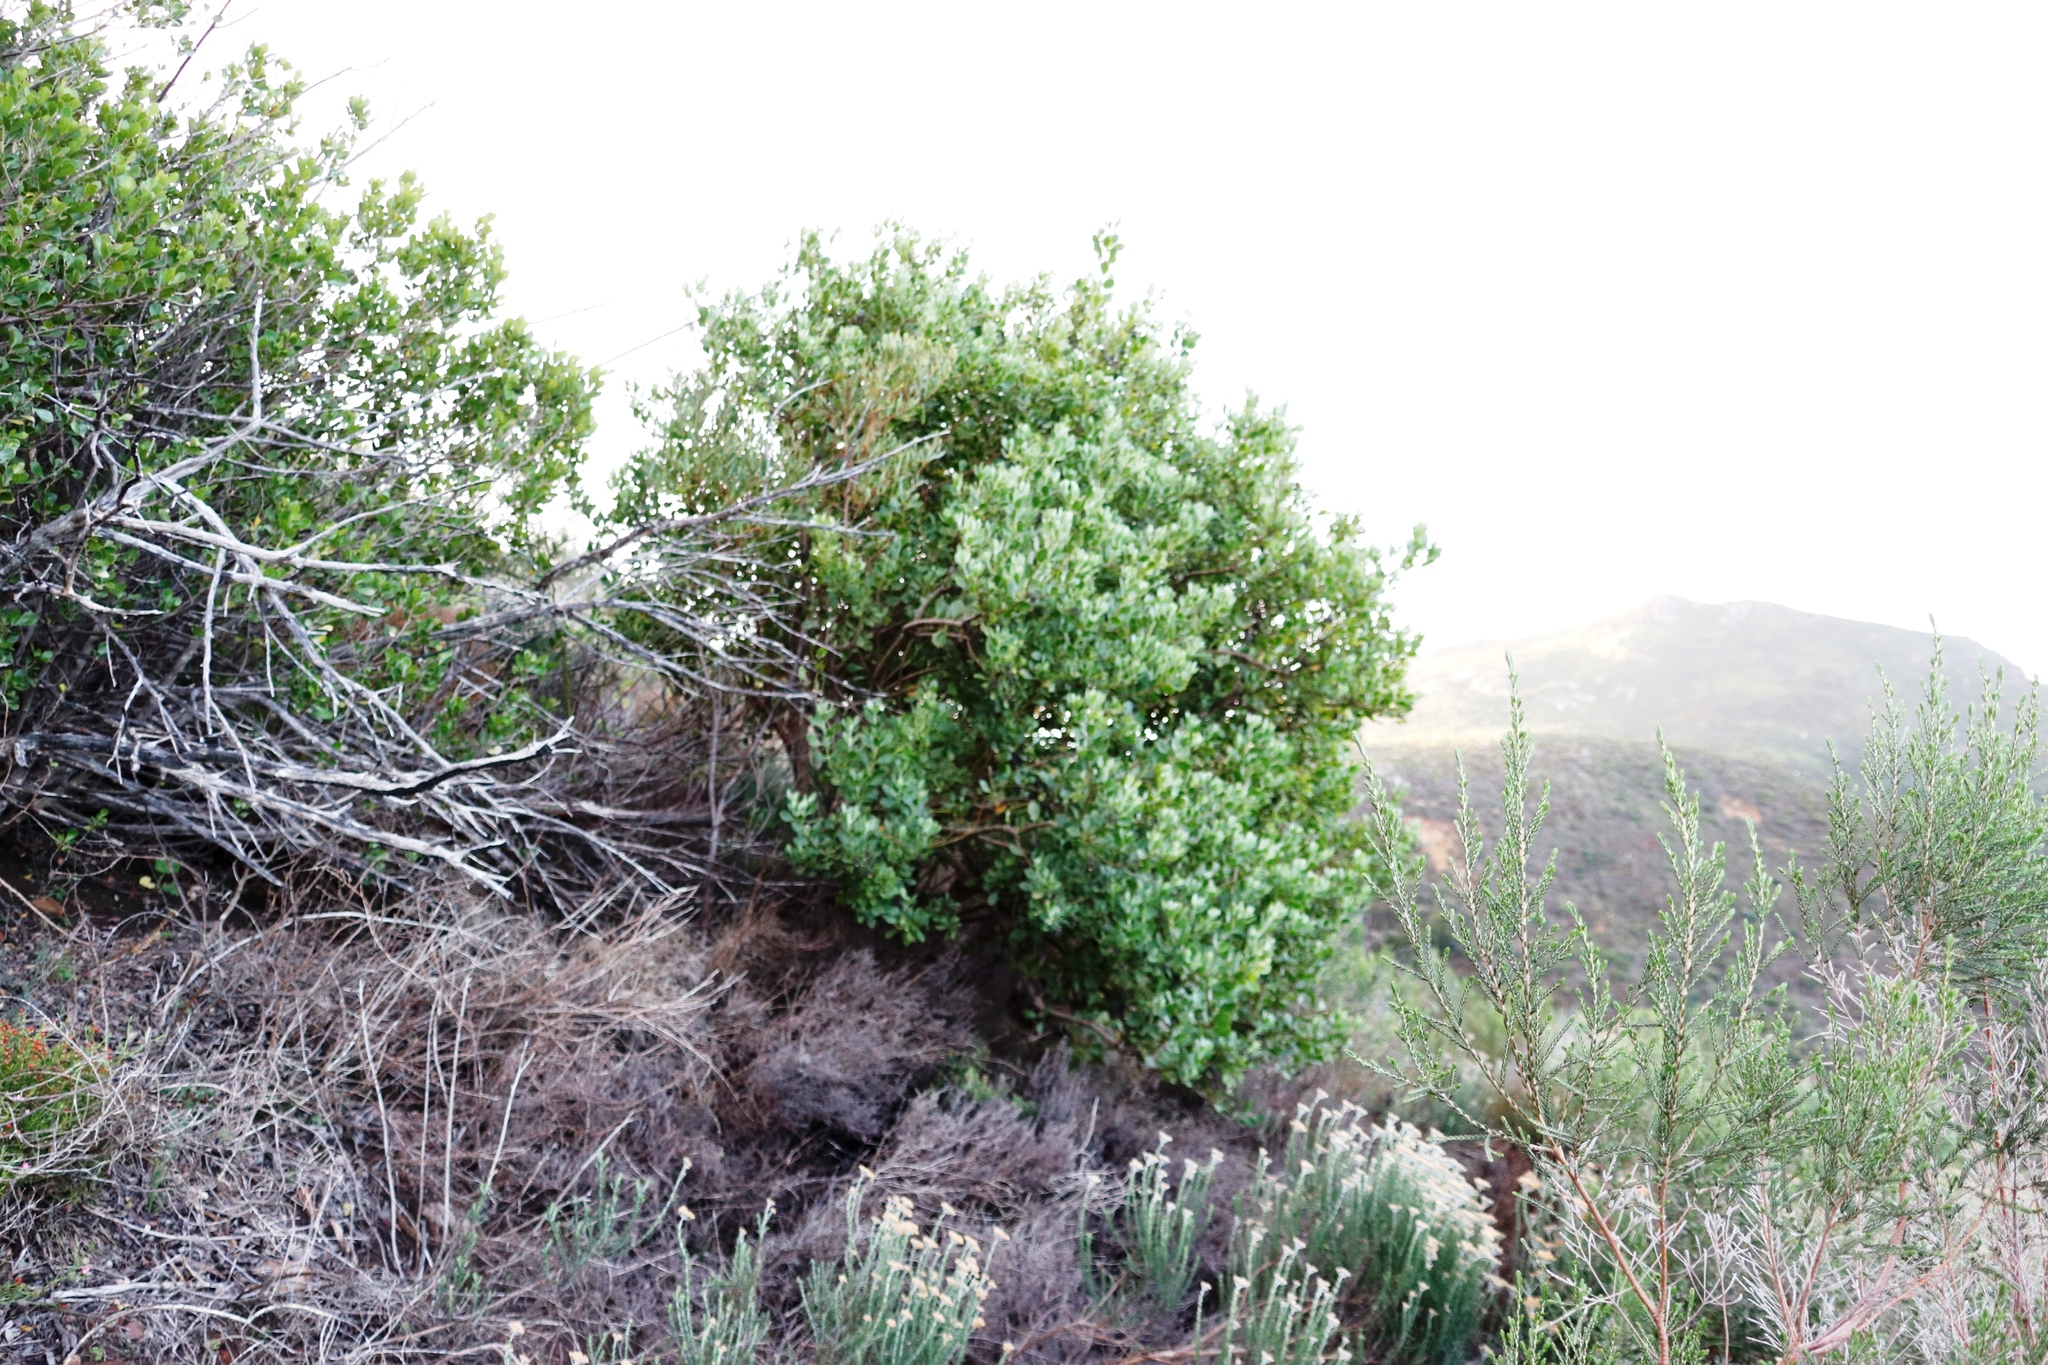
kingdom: Plantae
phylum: Tracheophyta
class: Magnoliopsida
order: Asterales
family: Asteraceae
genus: Osteospermum
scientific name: Osteospermum moniliferum
